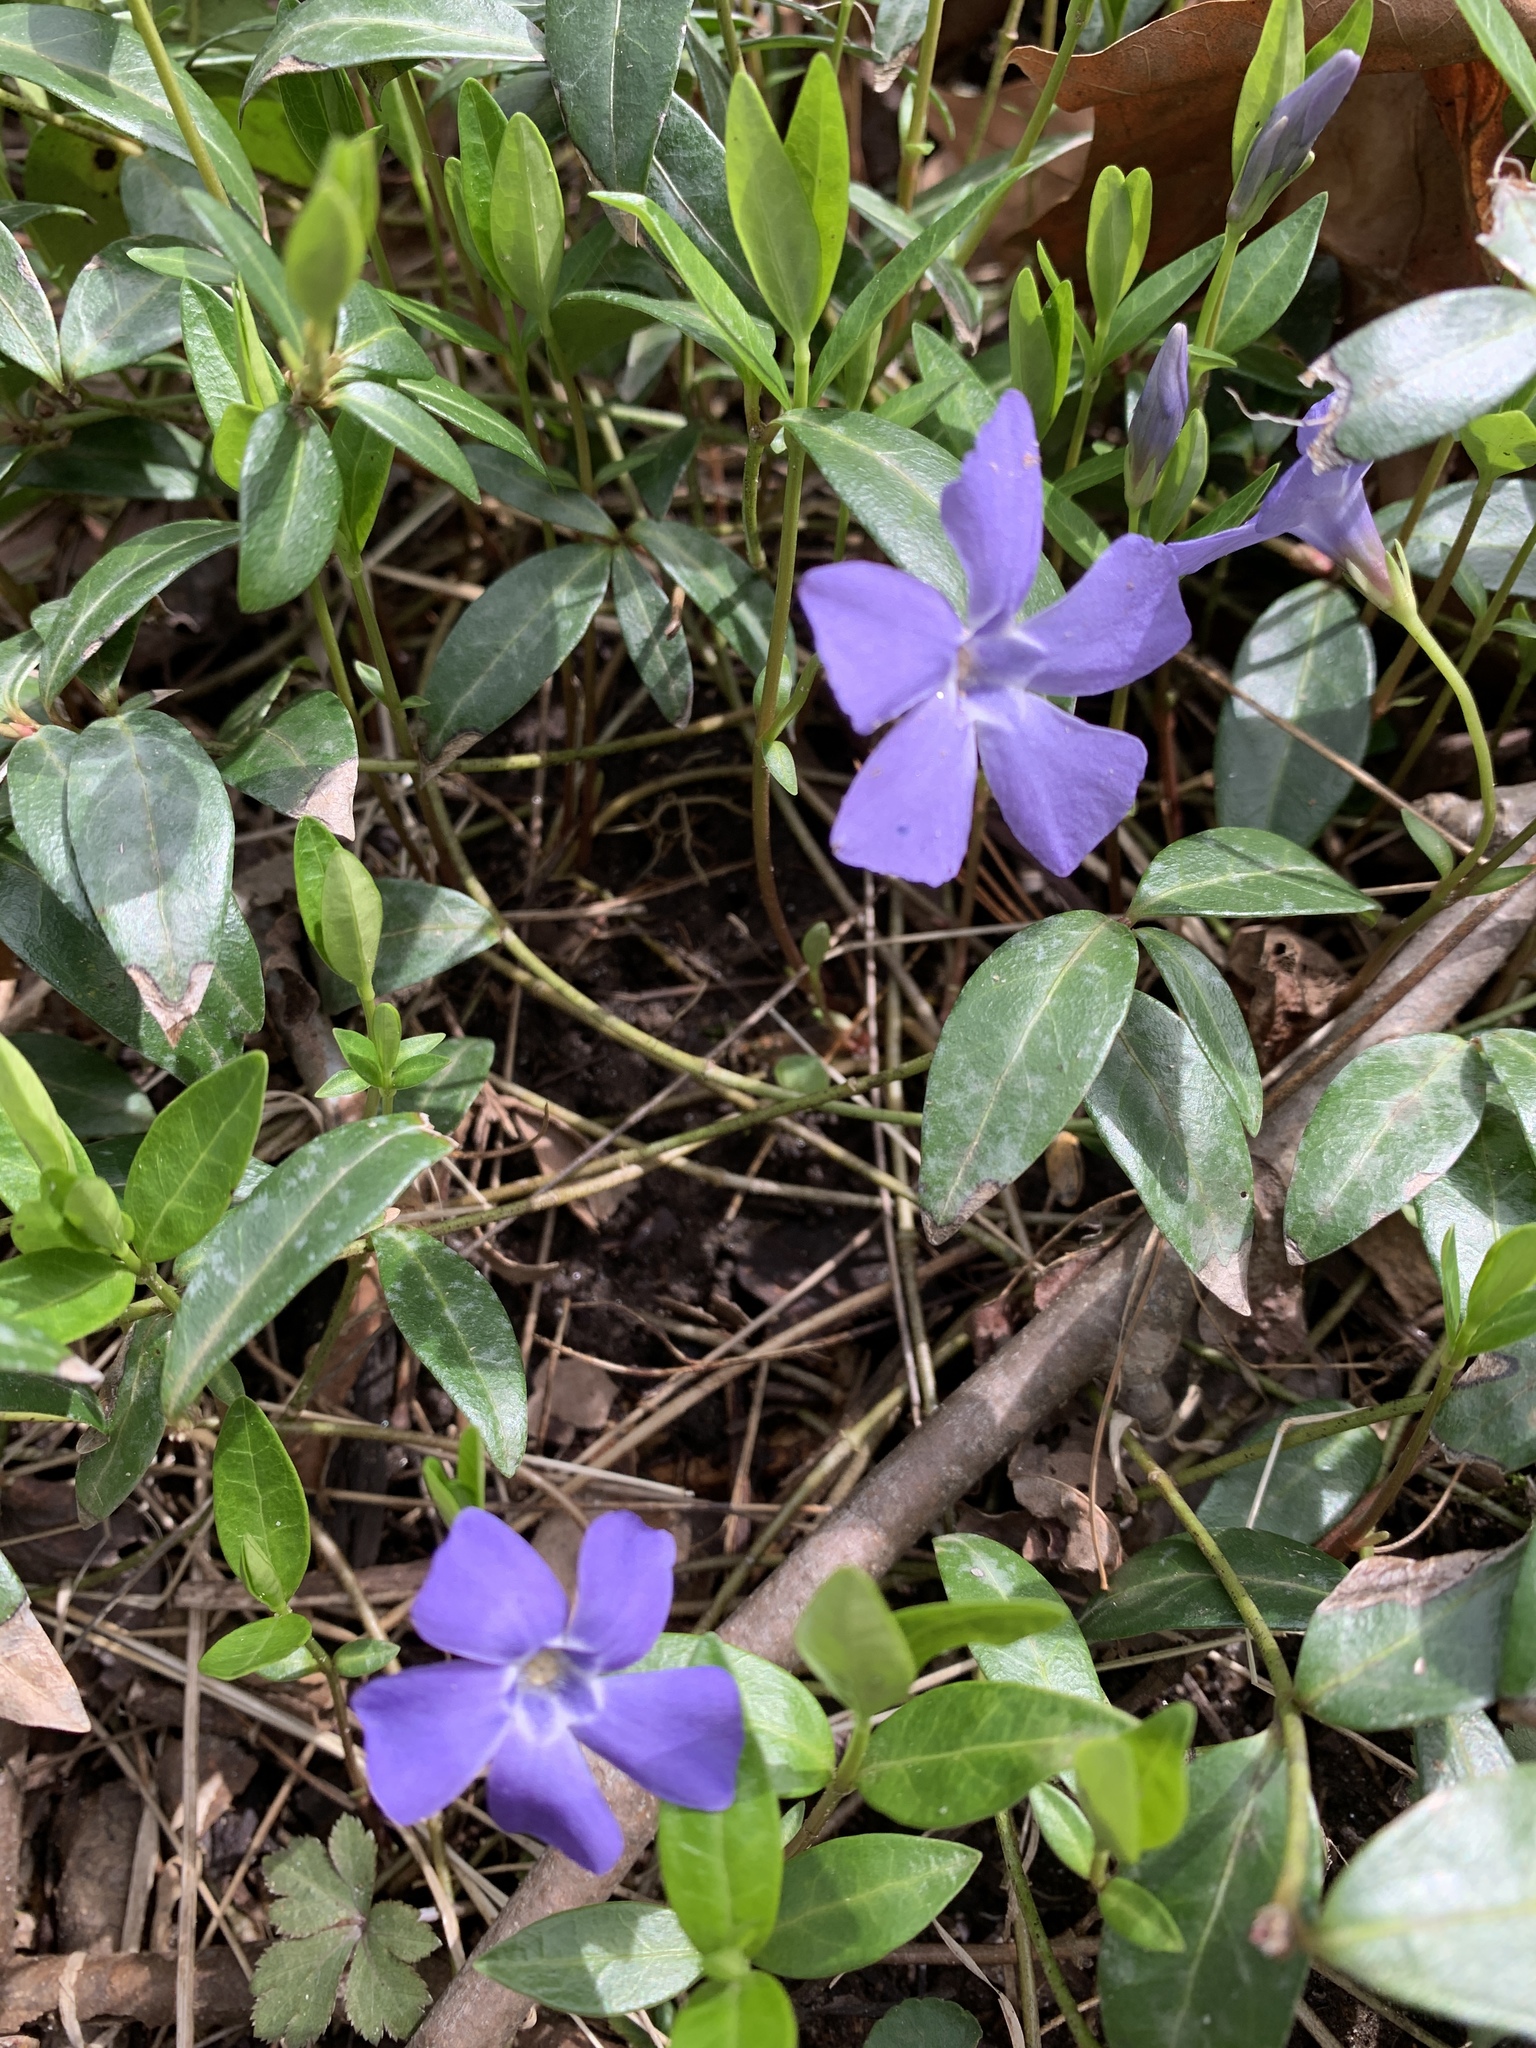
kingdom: Plantae
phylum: Tracheophyta
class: Magnoliopsida
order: Gentianales
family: Apocynaceae
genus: Vinca
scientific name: Vinca minor
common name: Lesser periwinkle
